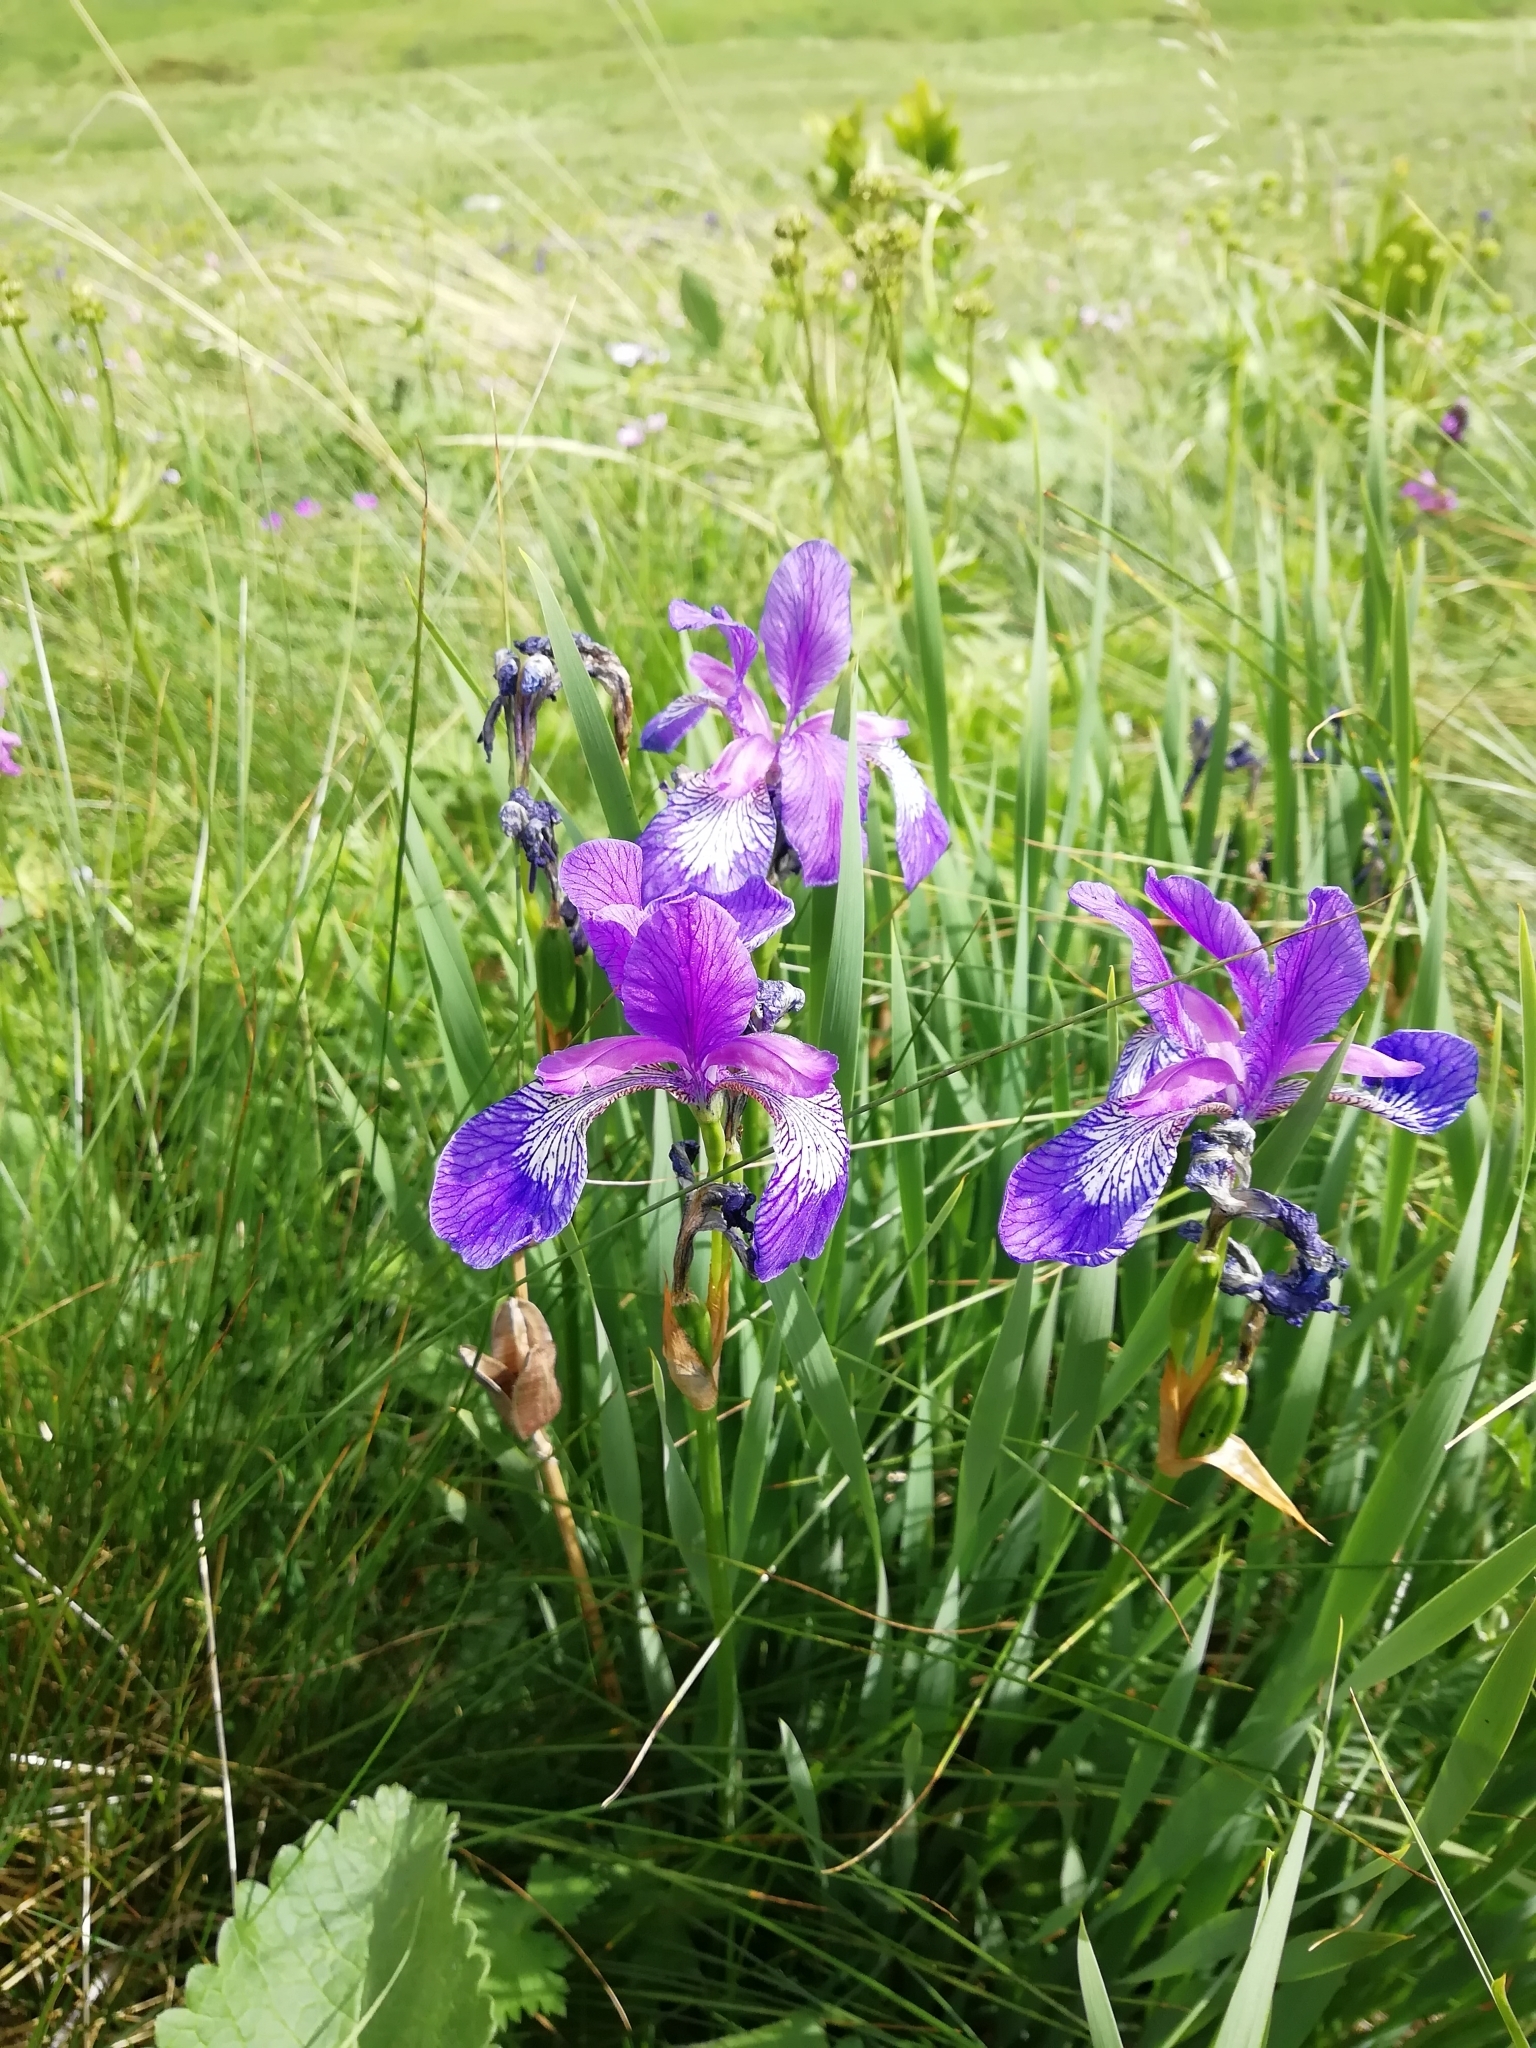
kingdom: Plantae
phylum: Tracheophyta
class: Liliopsida
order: Asparagales
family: Iridaceae
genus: Iris
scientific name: Iris sibirica
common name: Siberian iris
